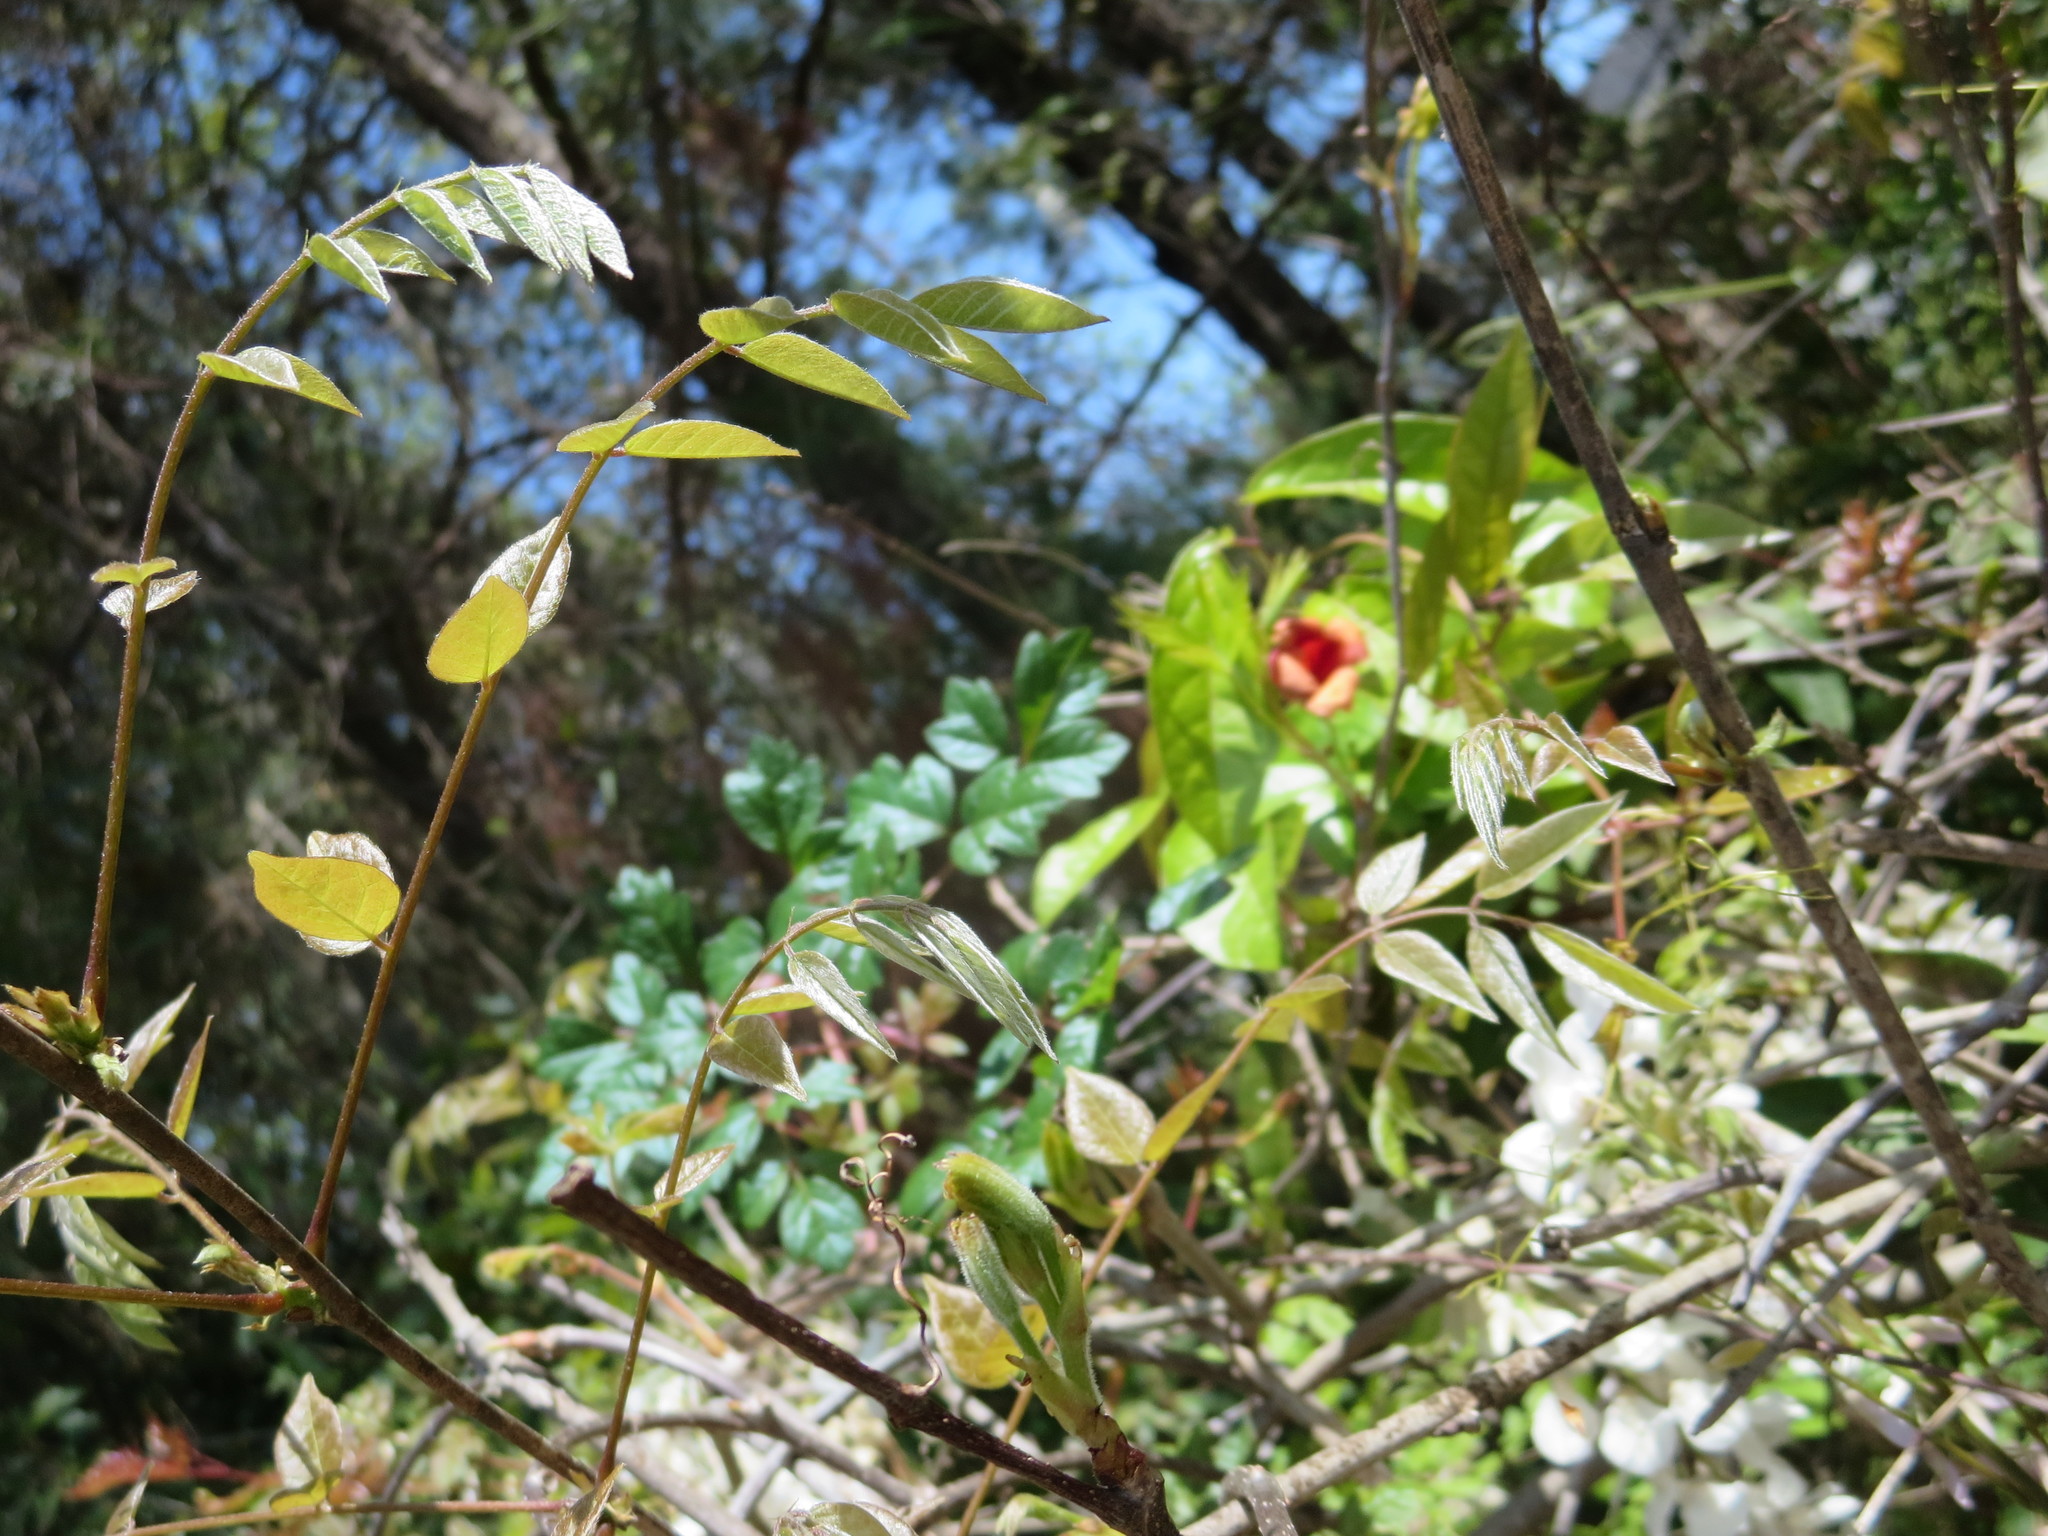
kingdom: Plantae
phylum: Tracheophyta
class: Magnoliopsida
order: Lamiales
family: Bignoniaceae
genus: Bignonia
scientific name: Bignonia capreolata
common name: Crossvine
